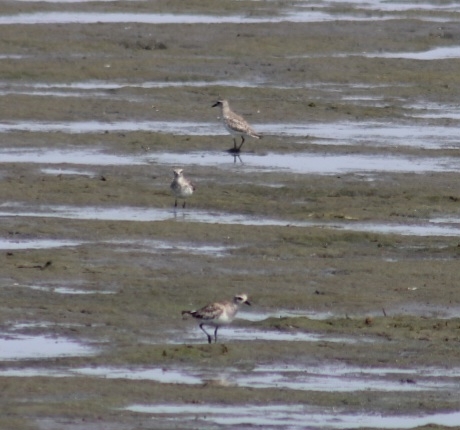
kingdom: Animalia
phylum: Chordata
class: Aves
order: Charadriiformes
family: Charadriidae
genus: Pluvialis
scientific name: Pluvialis squatarola
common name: Grey plover
